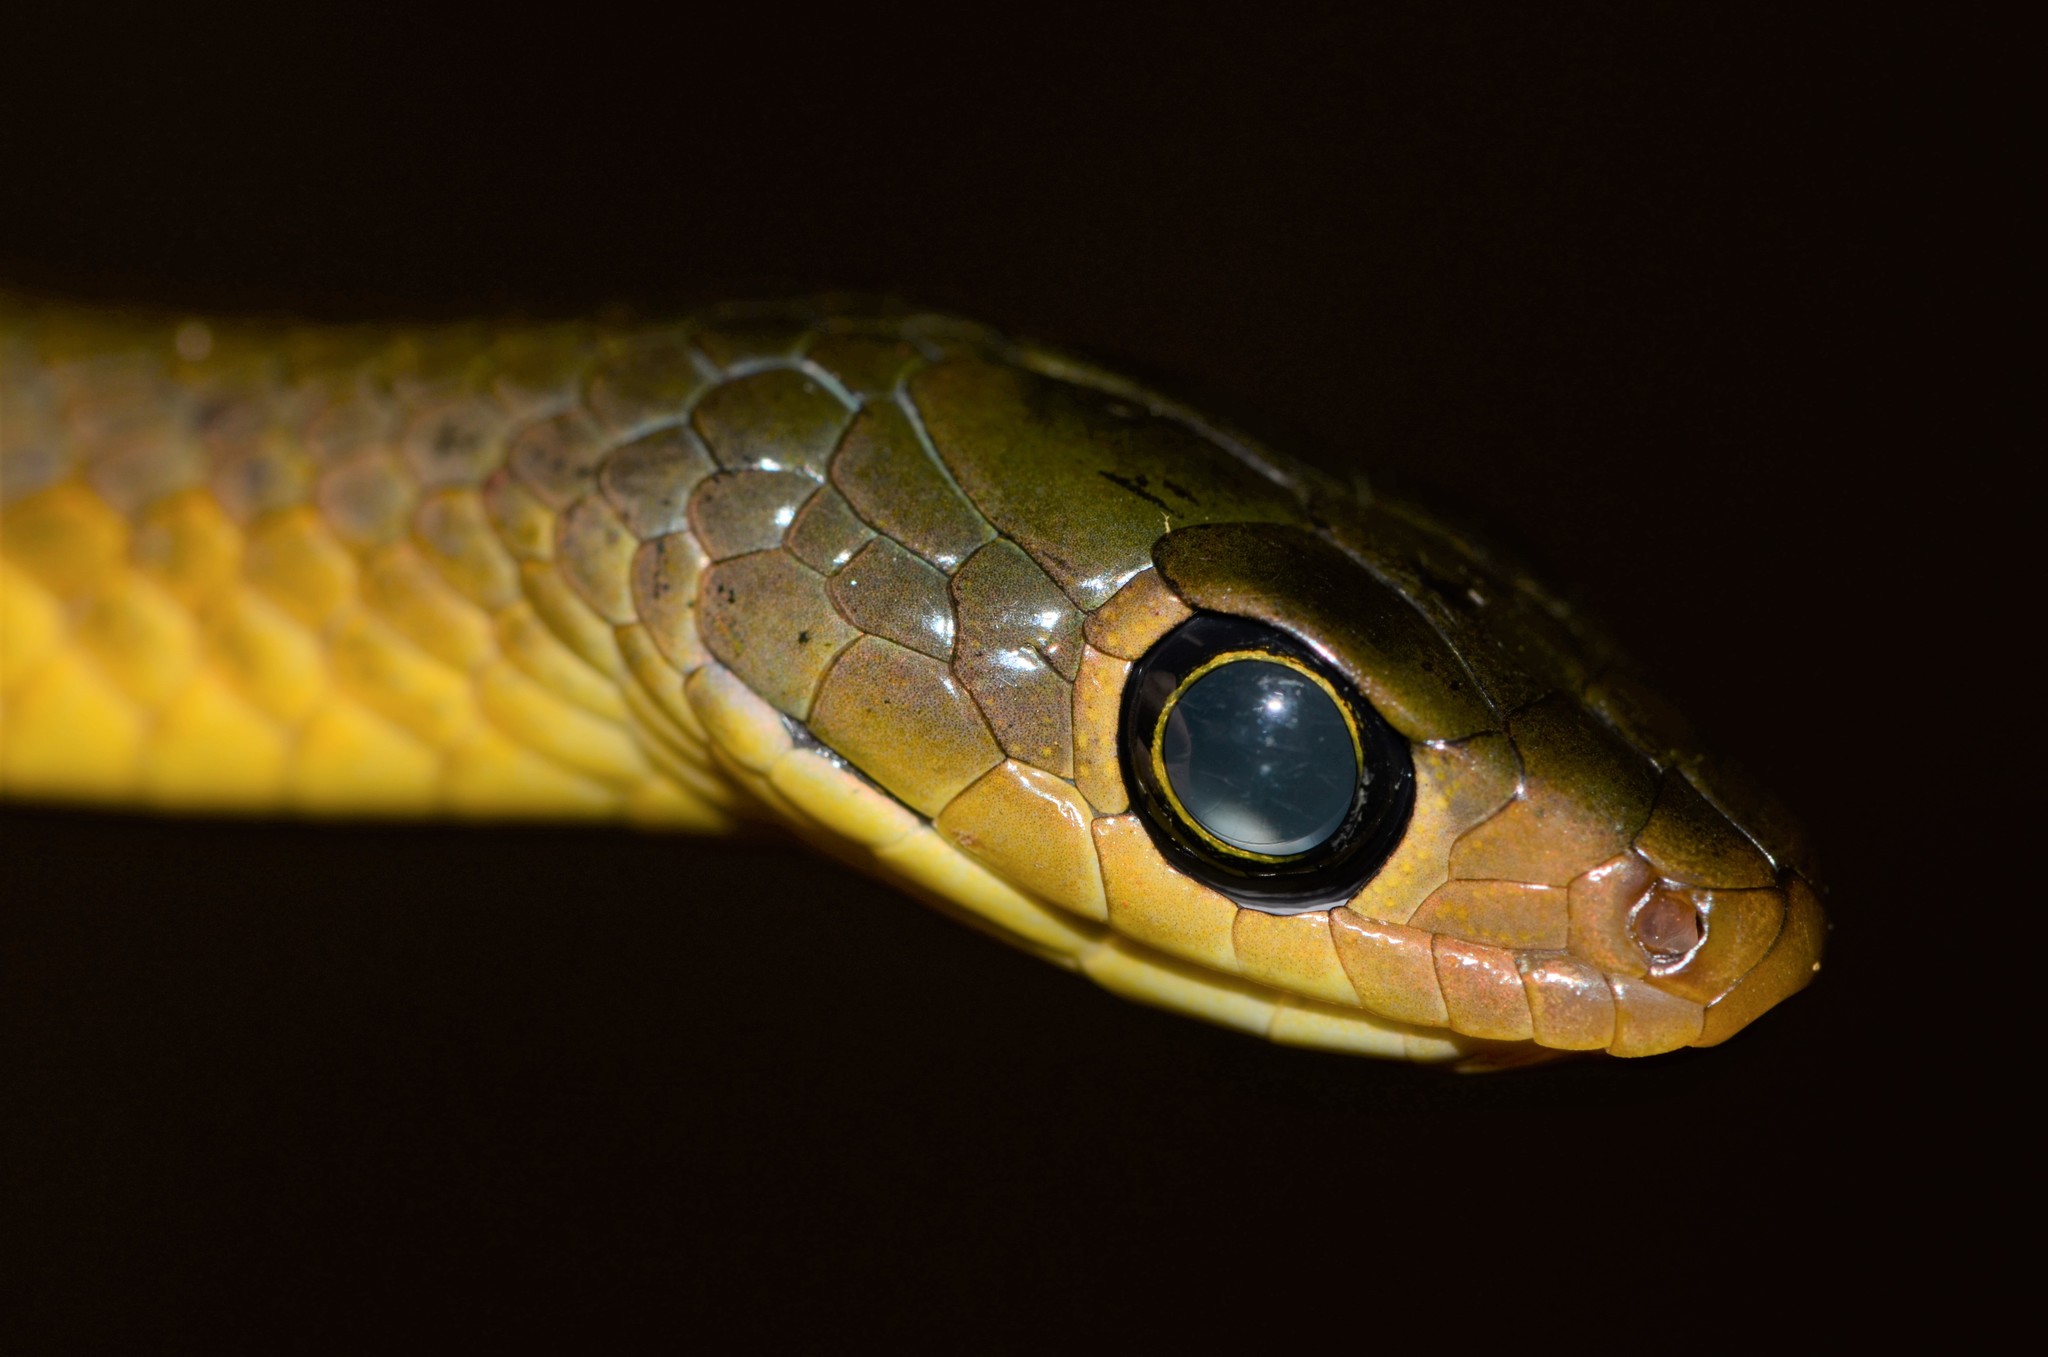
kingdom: Animalia
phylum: Chordata
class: Squamata
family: Colubridae
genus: Philothamnus
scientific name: Philothamnus carinatus
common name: Thirteen-scaled green snake
